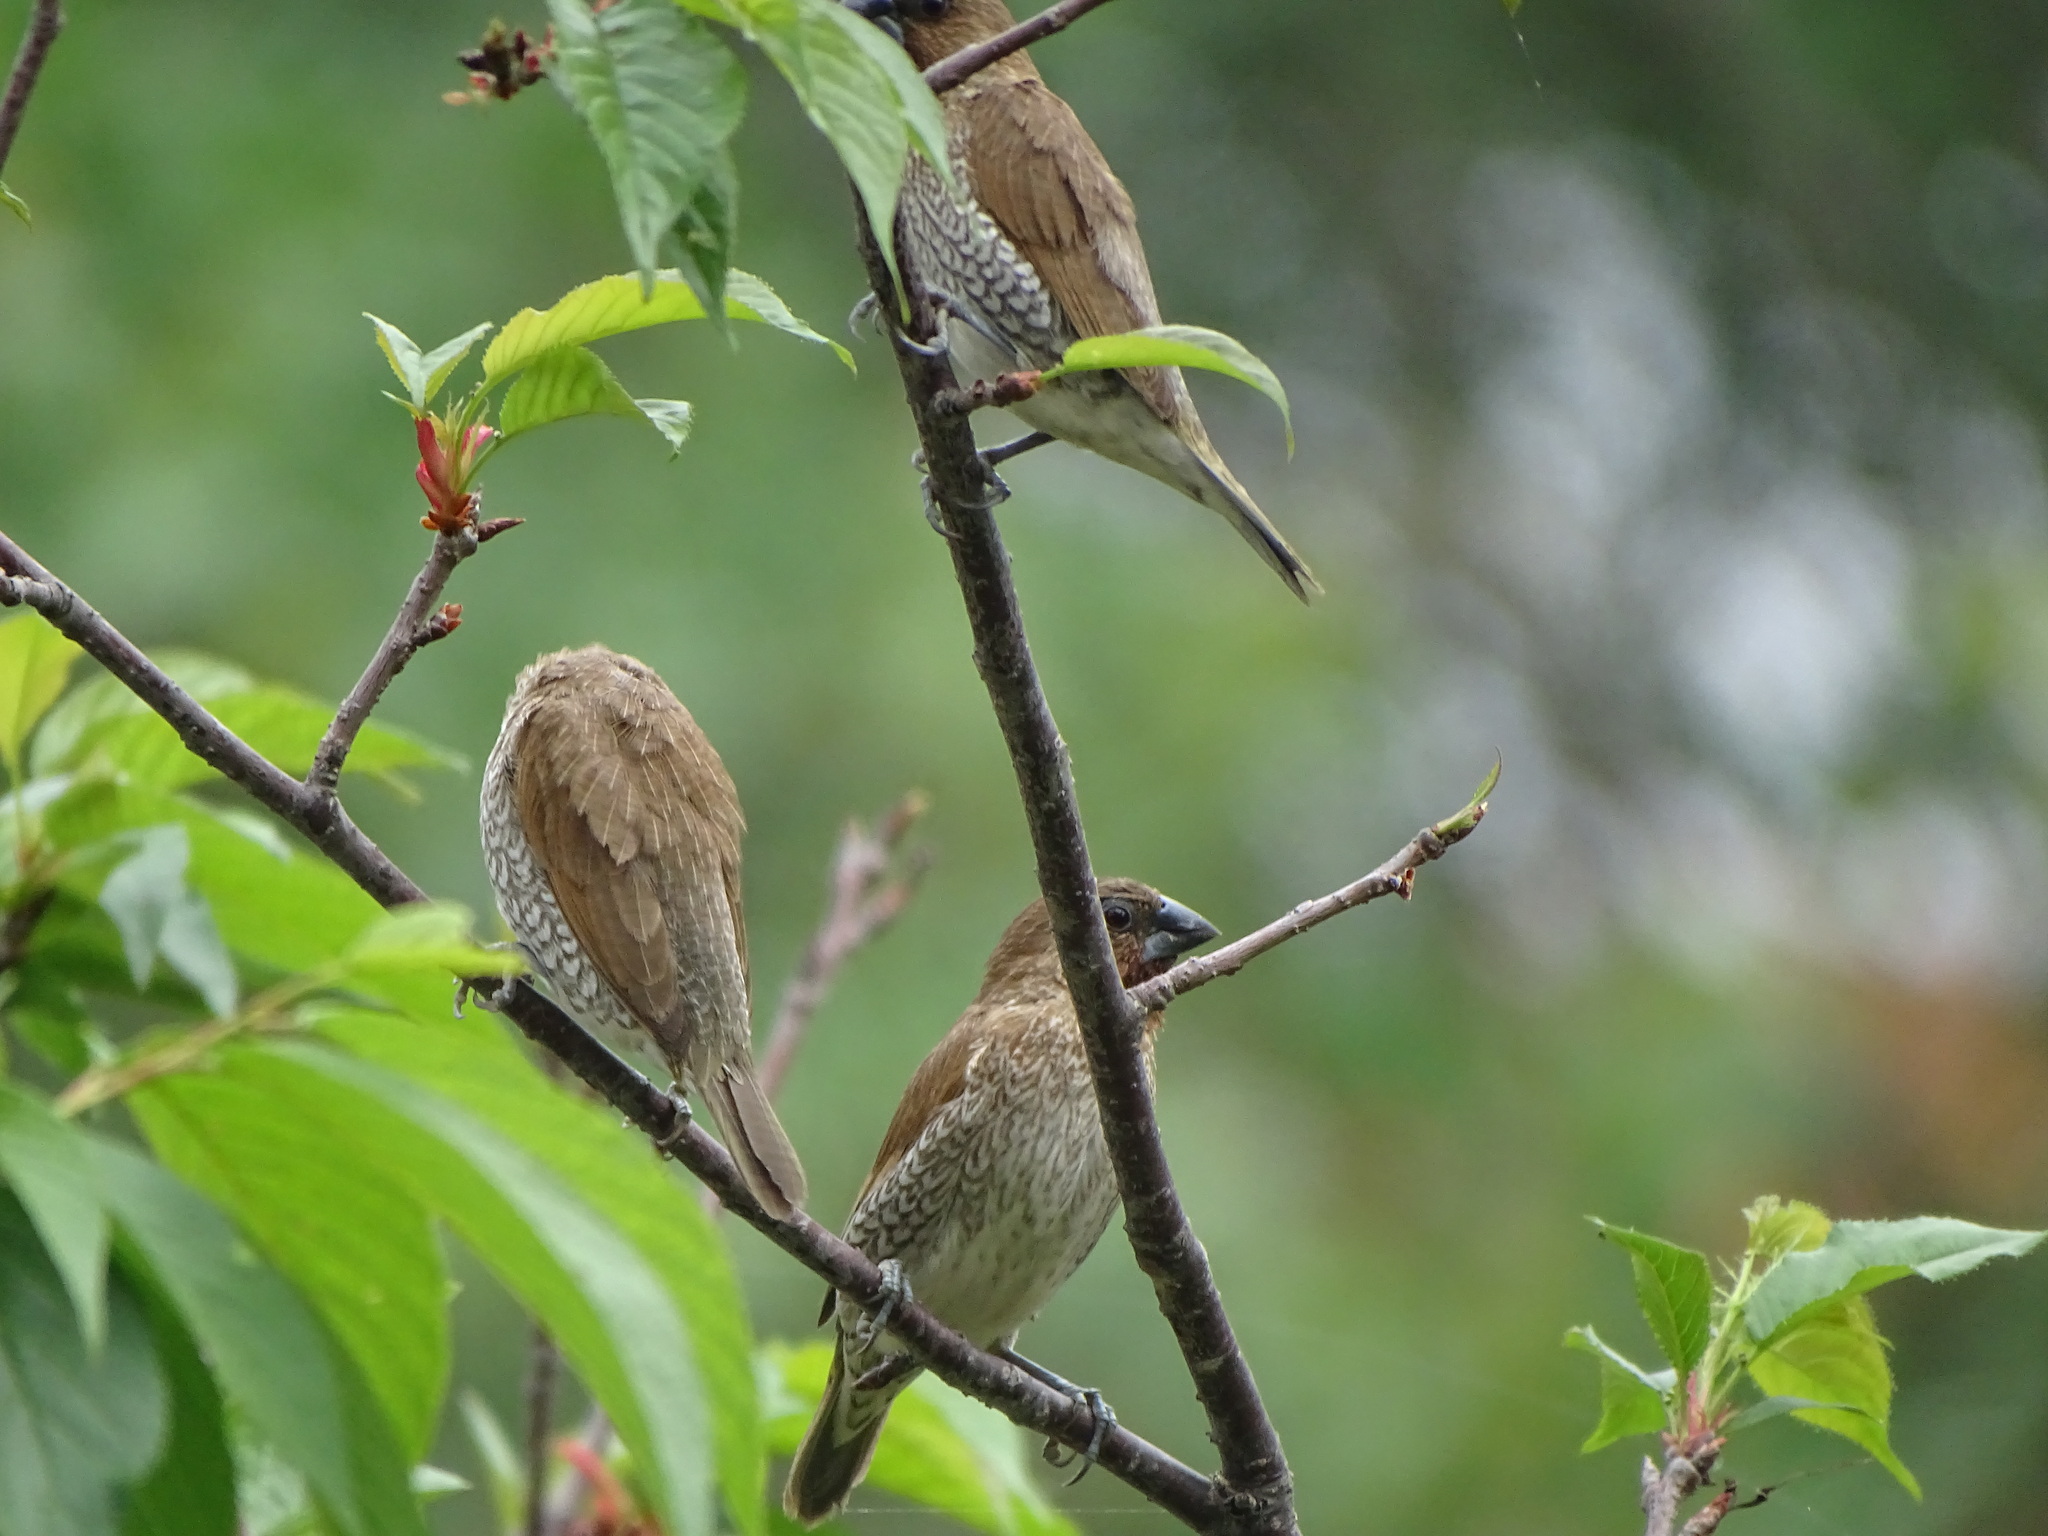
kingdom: Animalia
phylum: Chordata
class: Aves
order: Passeriformes
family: Estrildidae
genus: Lonchura
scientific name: Lonchura punctulata
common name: Scaly-breasted munia
